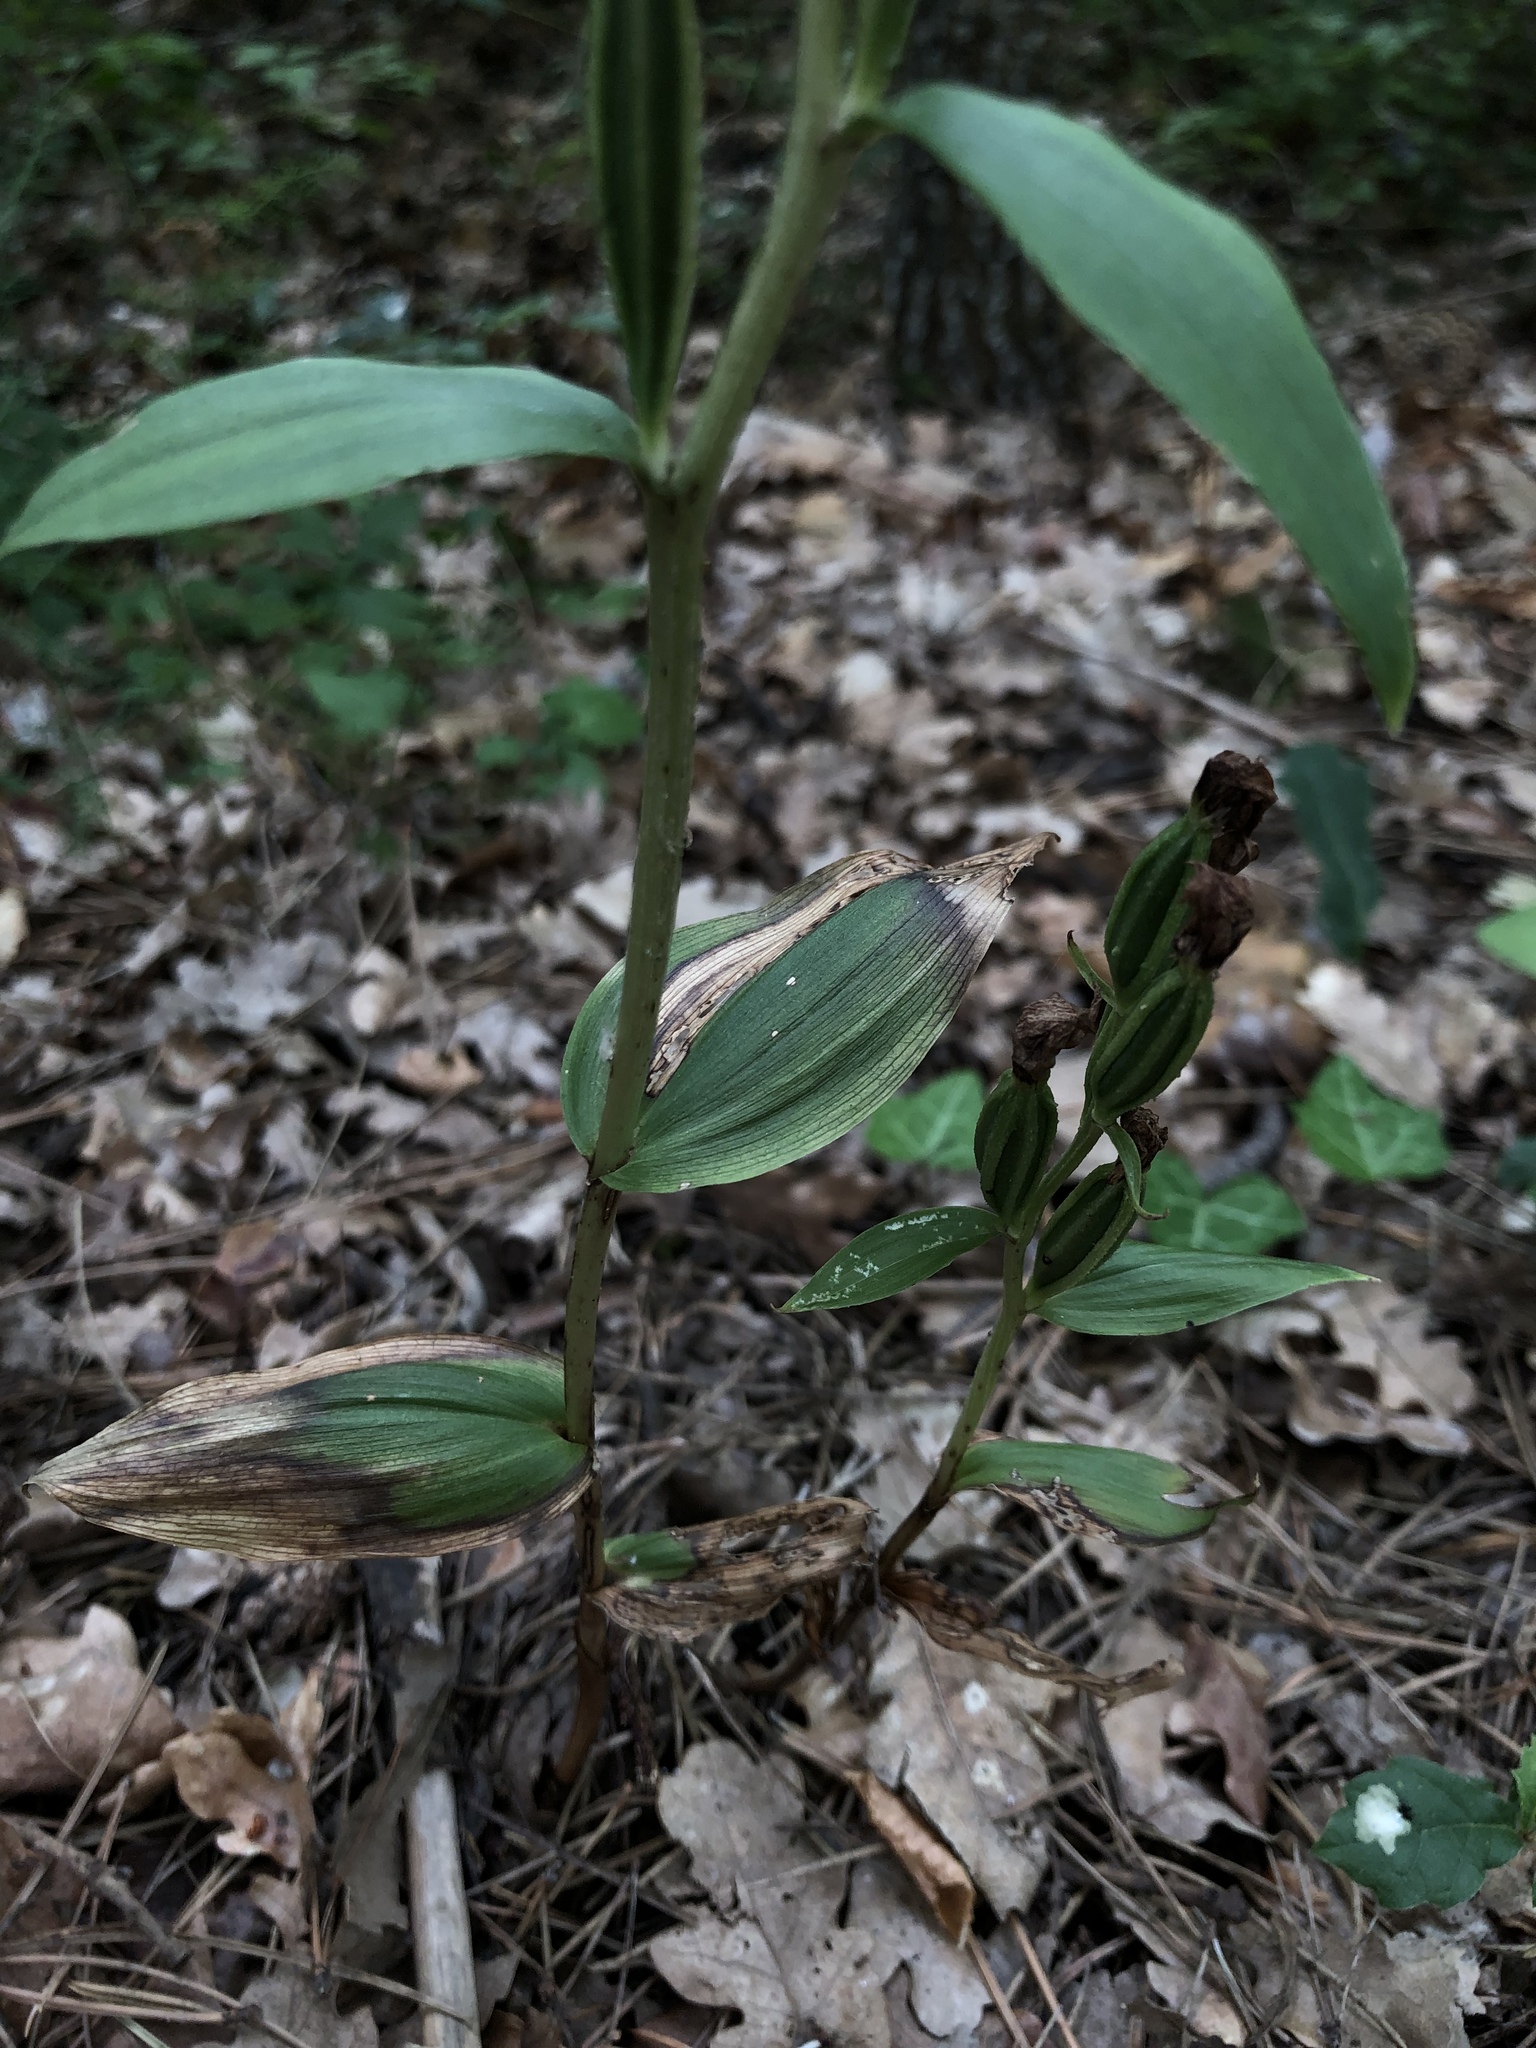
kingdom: Plantae
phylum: Tracheophyta
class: Liliopsida
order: Asparagales
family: Orchidaceae
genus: Cephalanthera
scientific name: Cephalanthera damasonium
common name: White helleborine
